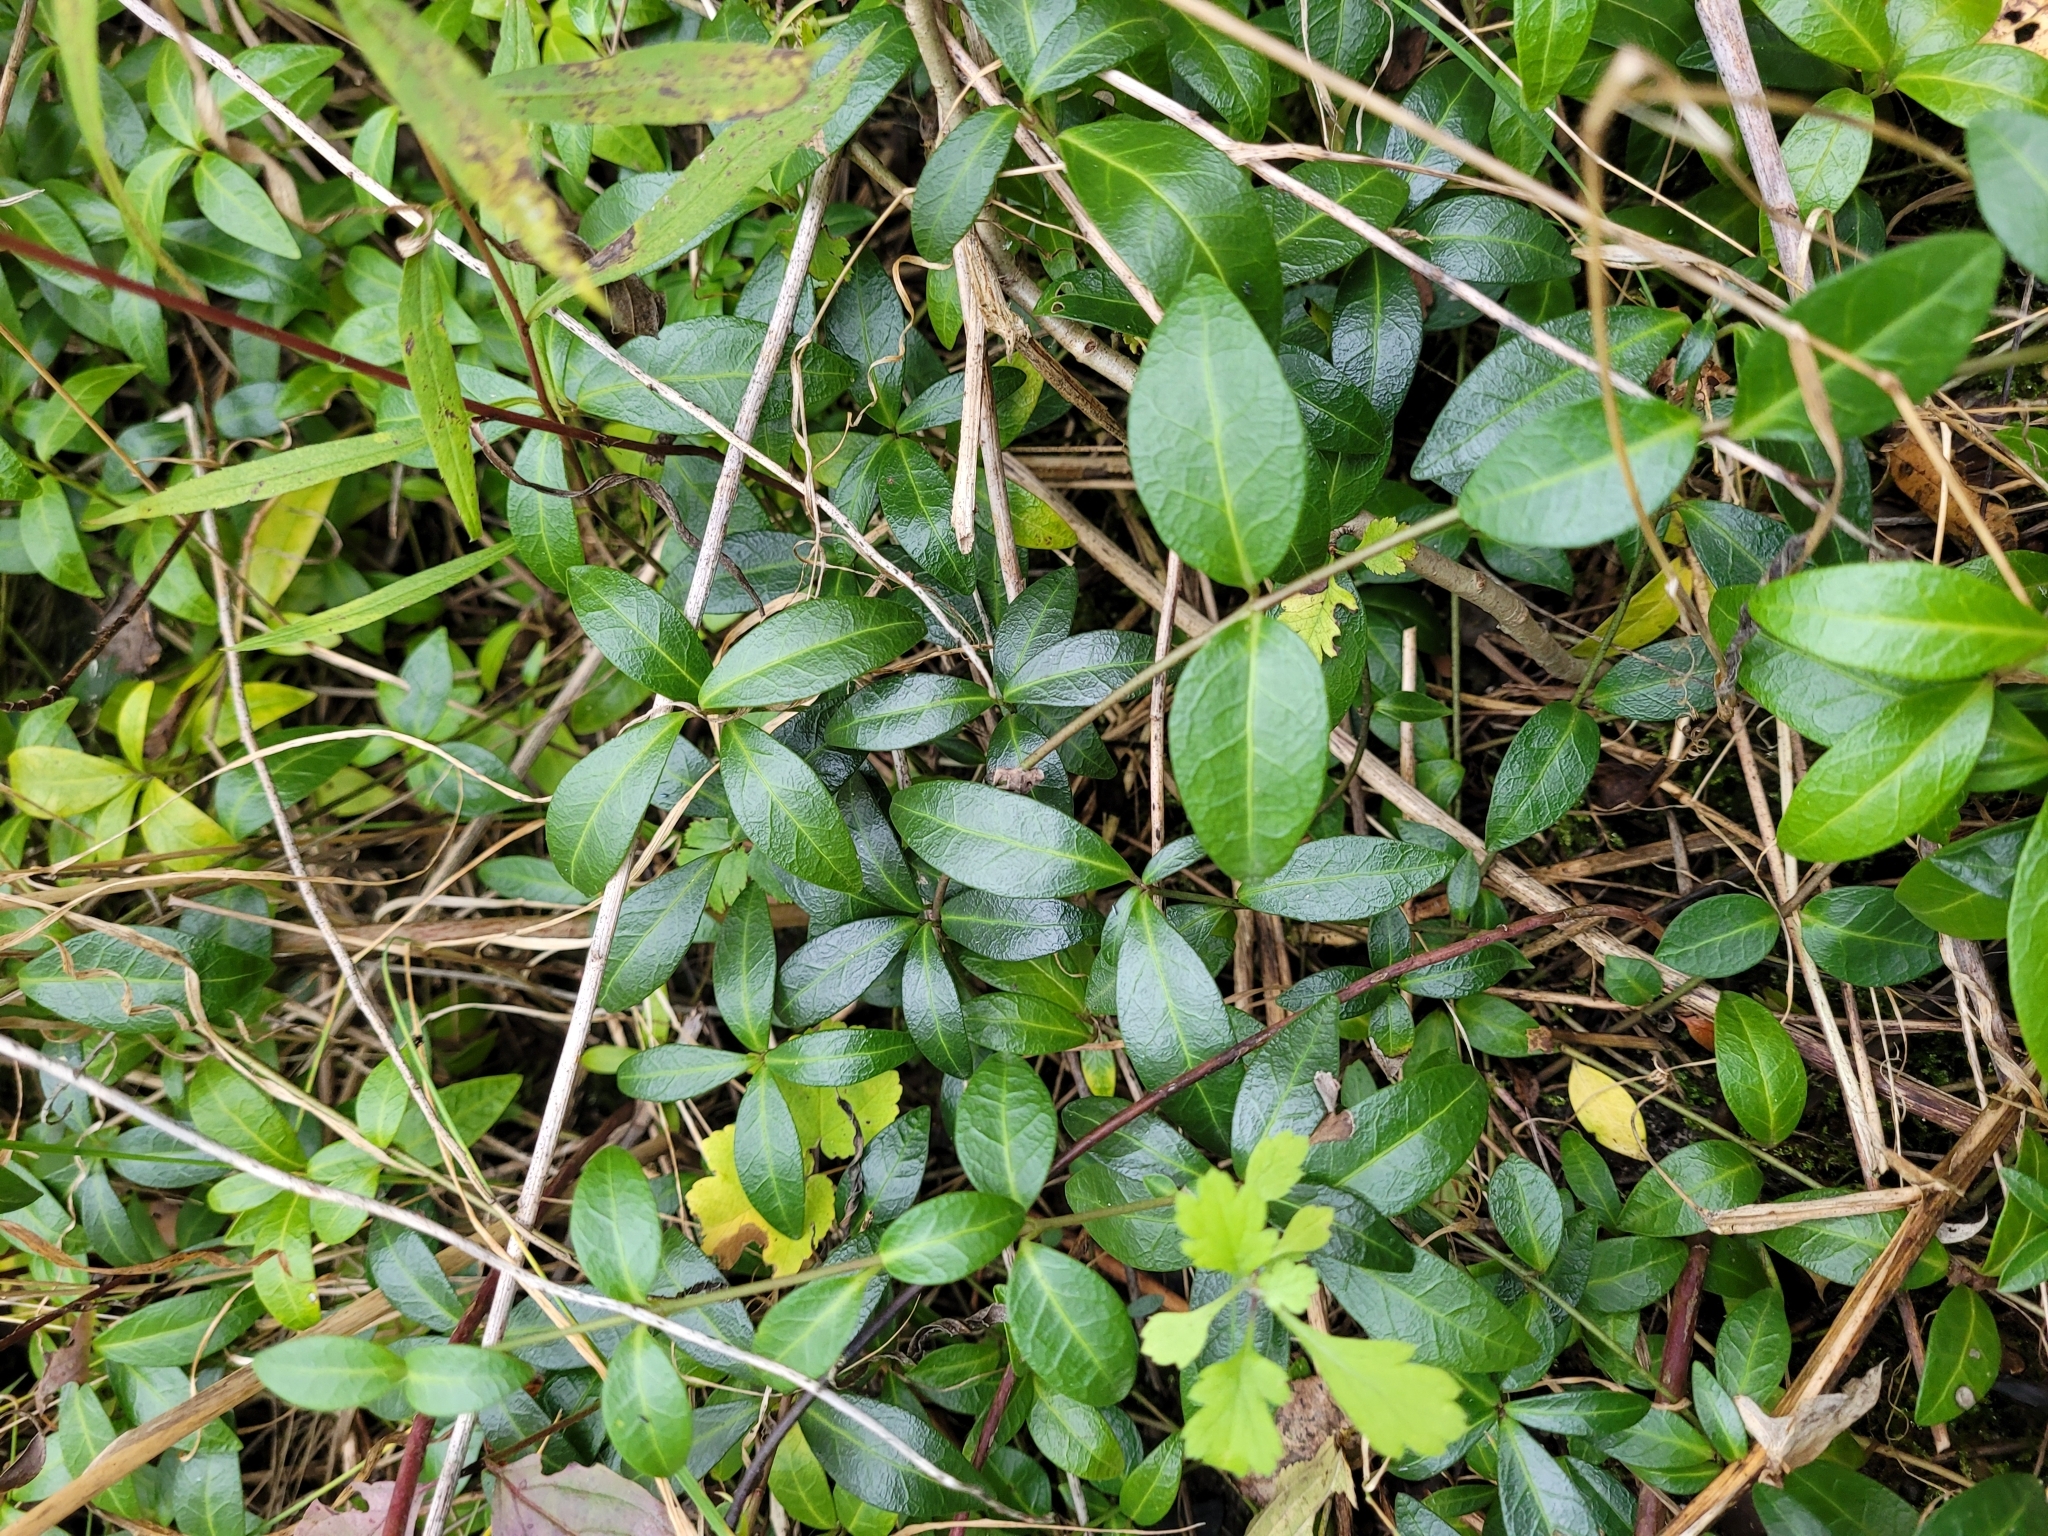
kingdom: Plantae
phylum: Tracheophyta
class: Magnoliopsida
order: Gentianales
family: Apocynaceae
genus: Vinca
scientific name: Vinca minor
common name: Lesser periwinkle
